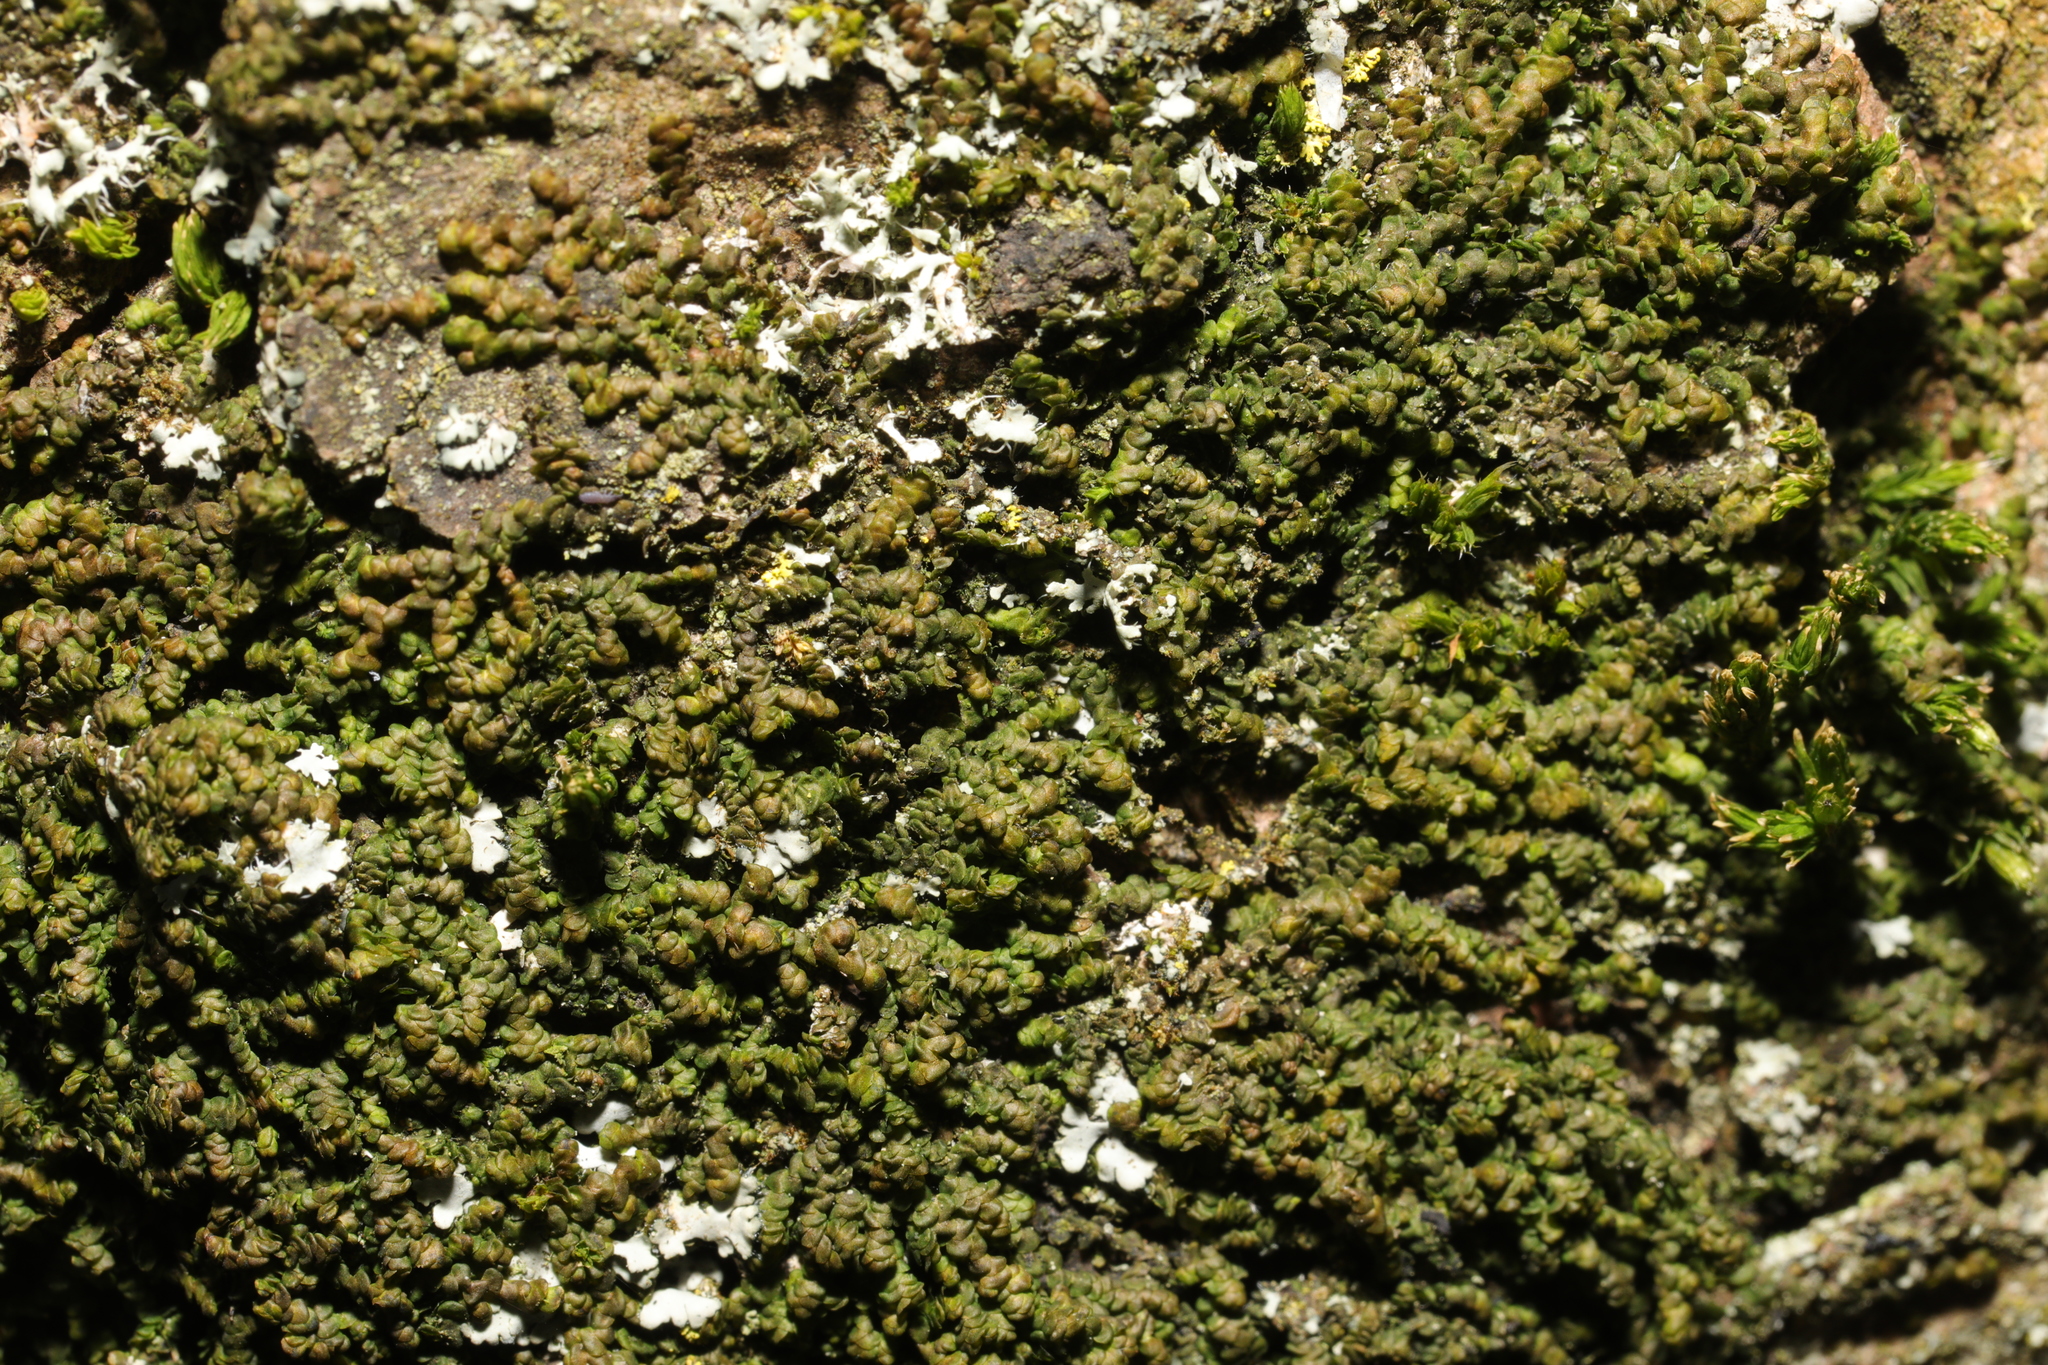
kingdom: Plantae
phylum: Marchantiophyta
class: Jungermanniopsida
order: Porellales
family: Frullaniaceae
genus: Frullania
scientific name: Frullania dilatata
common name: Dilated scalewort
